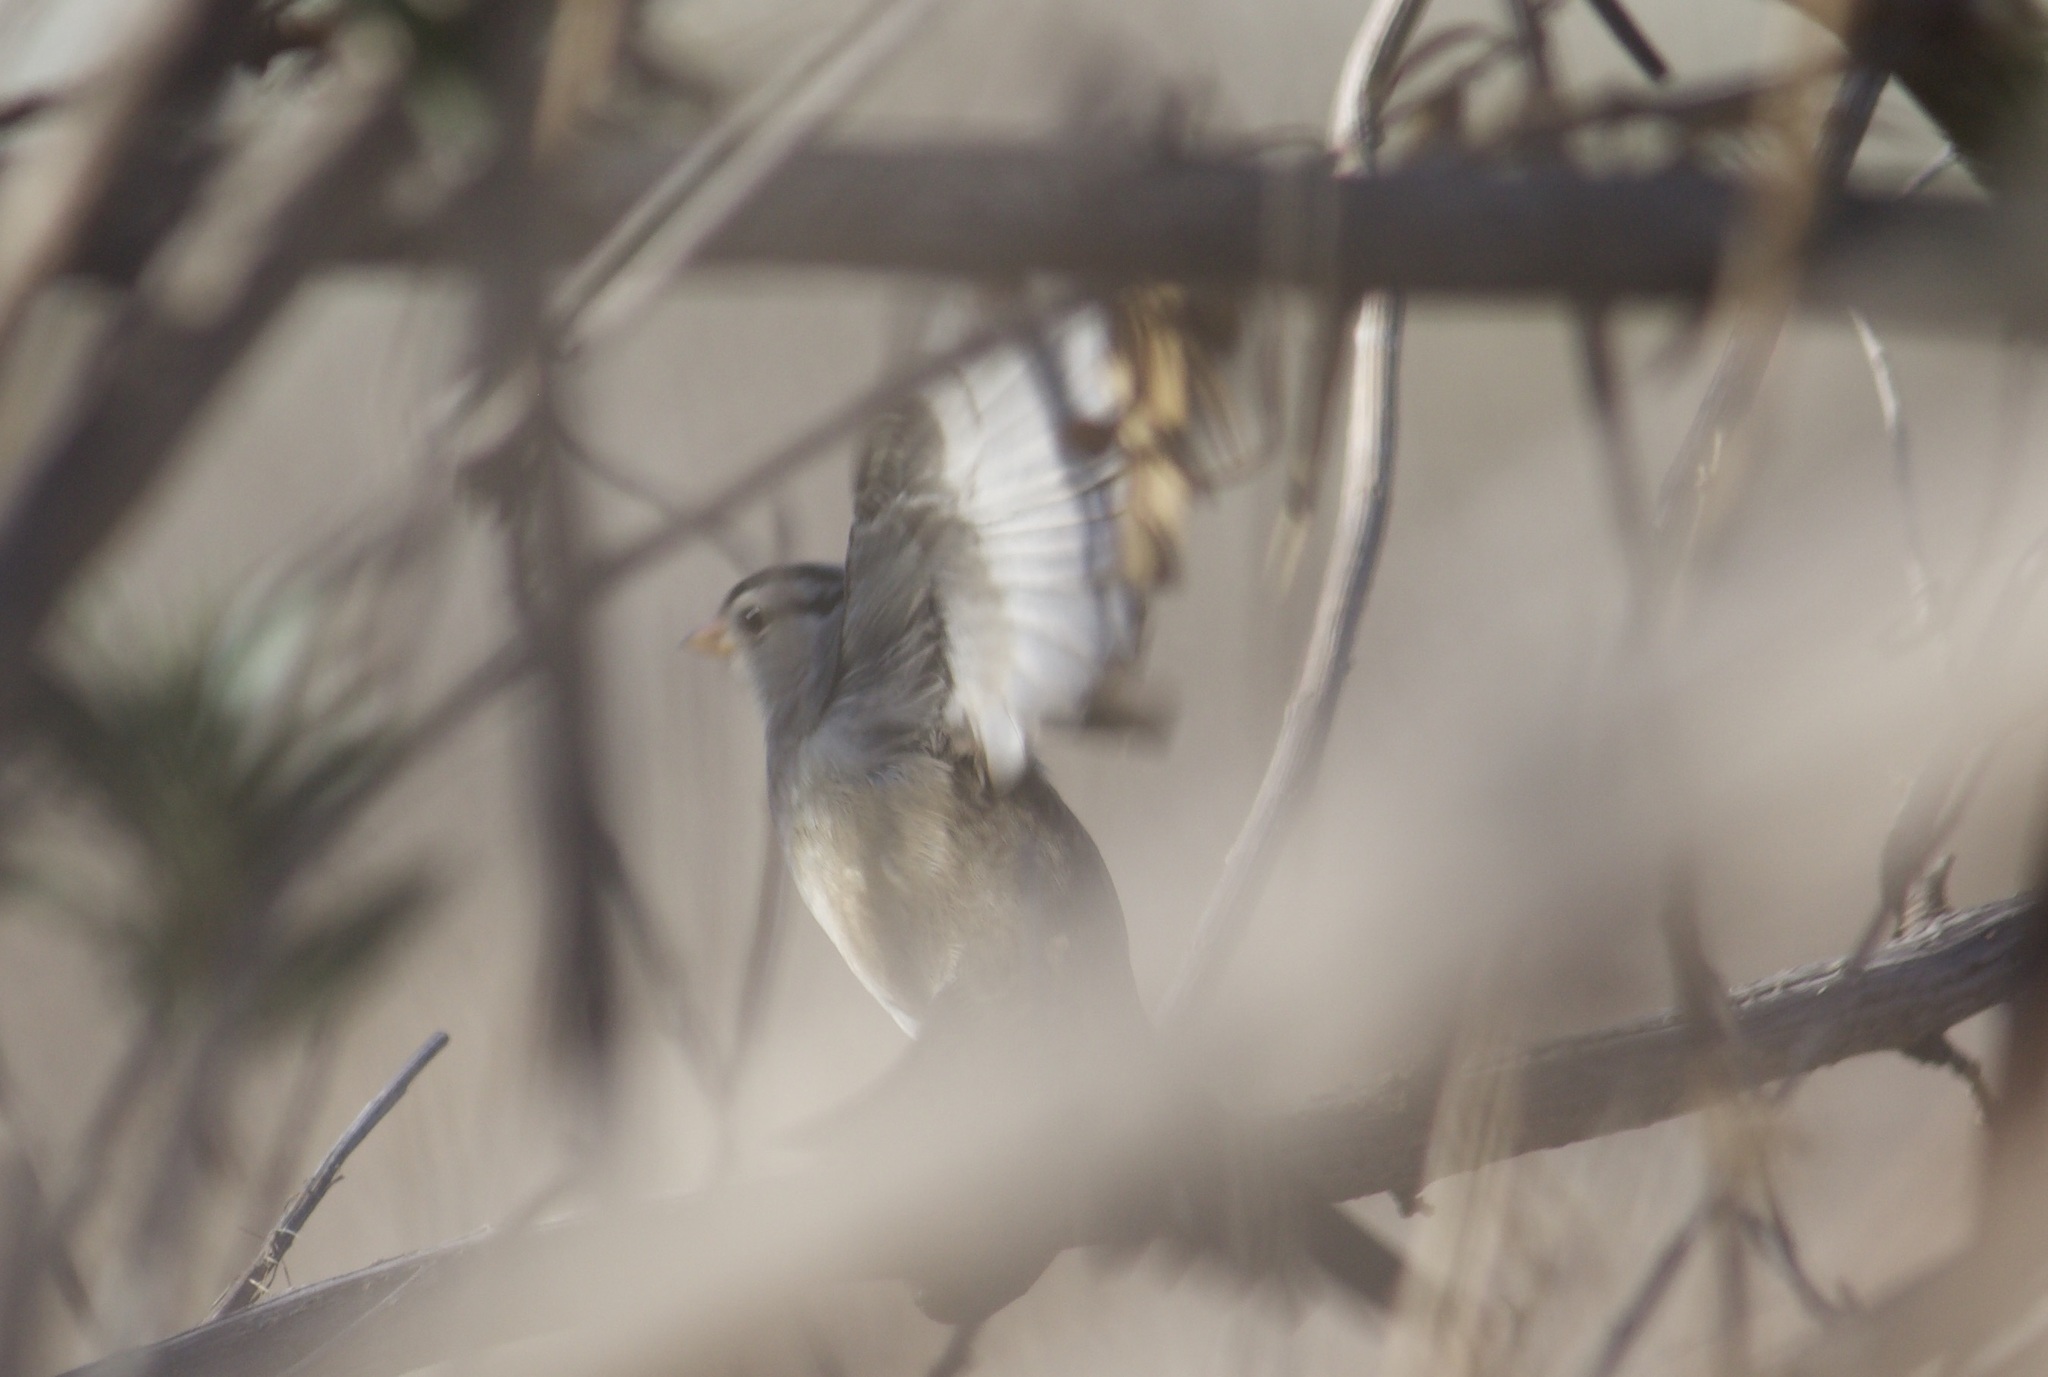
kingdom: Animalia
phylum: Chordata
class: Aves
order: Passeriformes
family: Passerellidae
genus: Zonotrichia
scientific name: Zonotrichia leucophrys
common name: White-crowned sparrow
